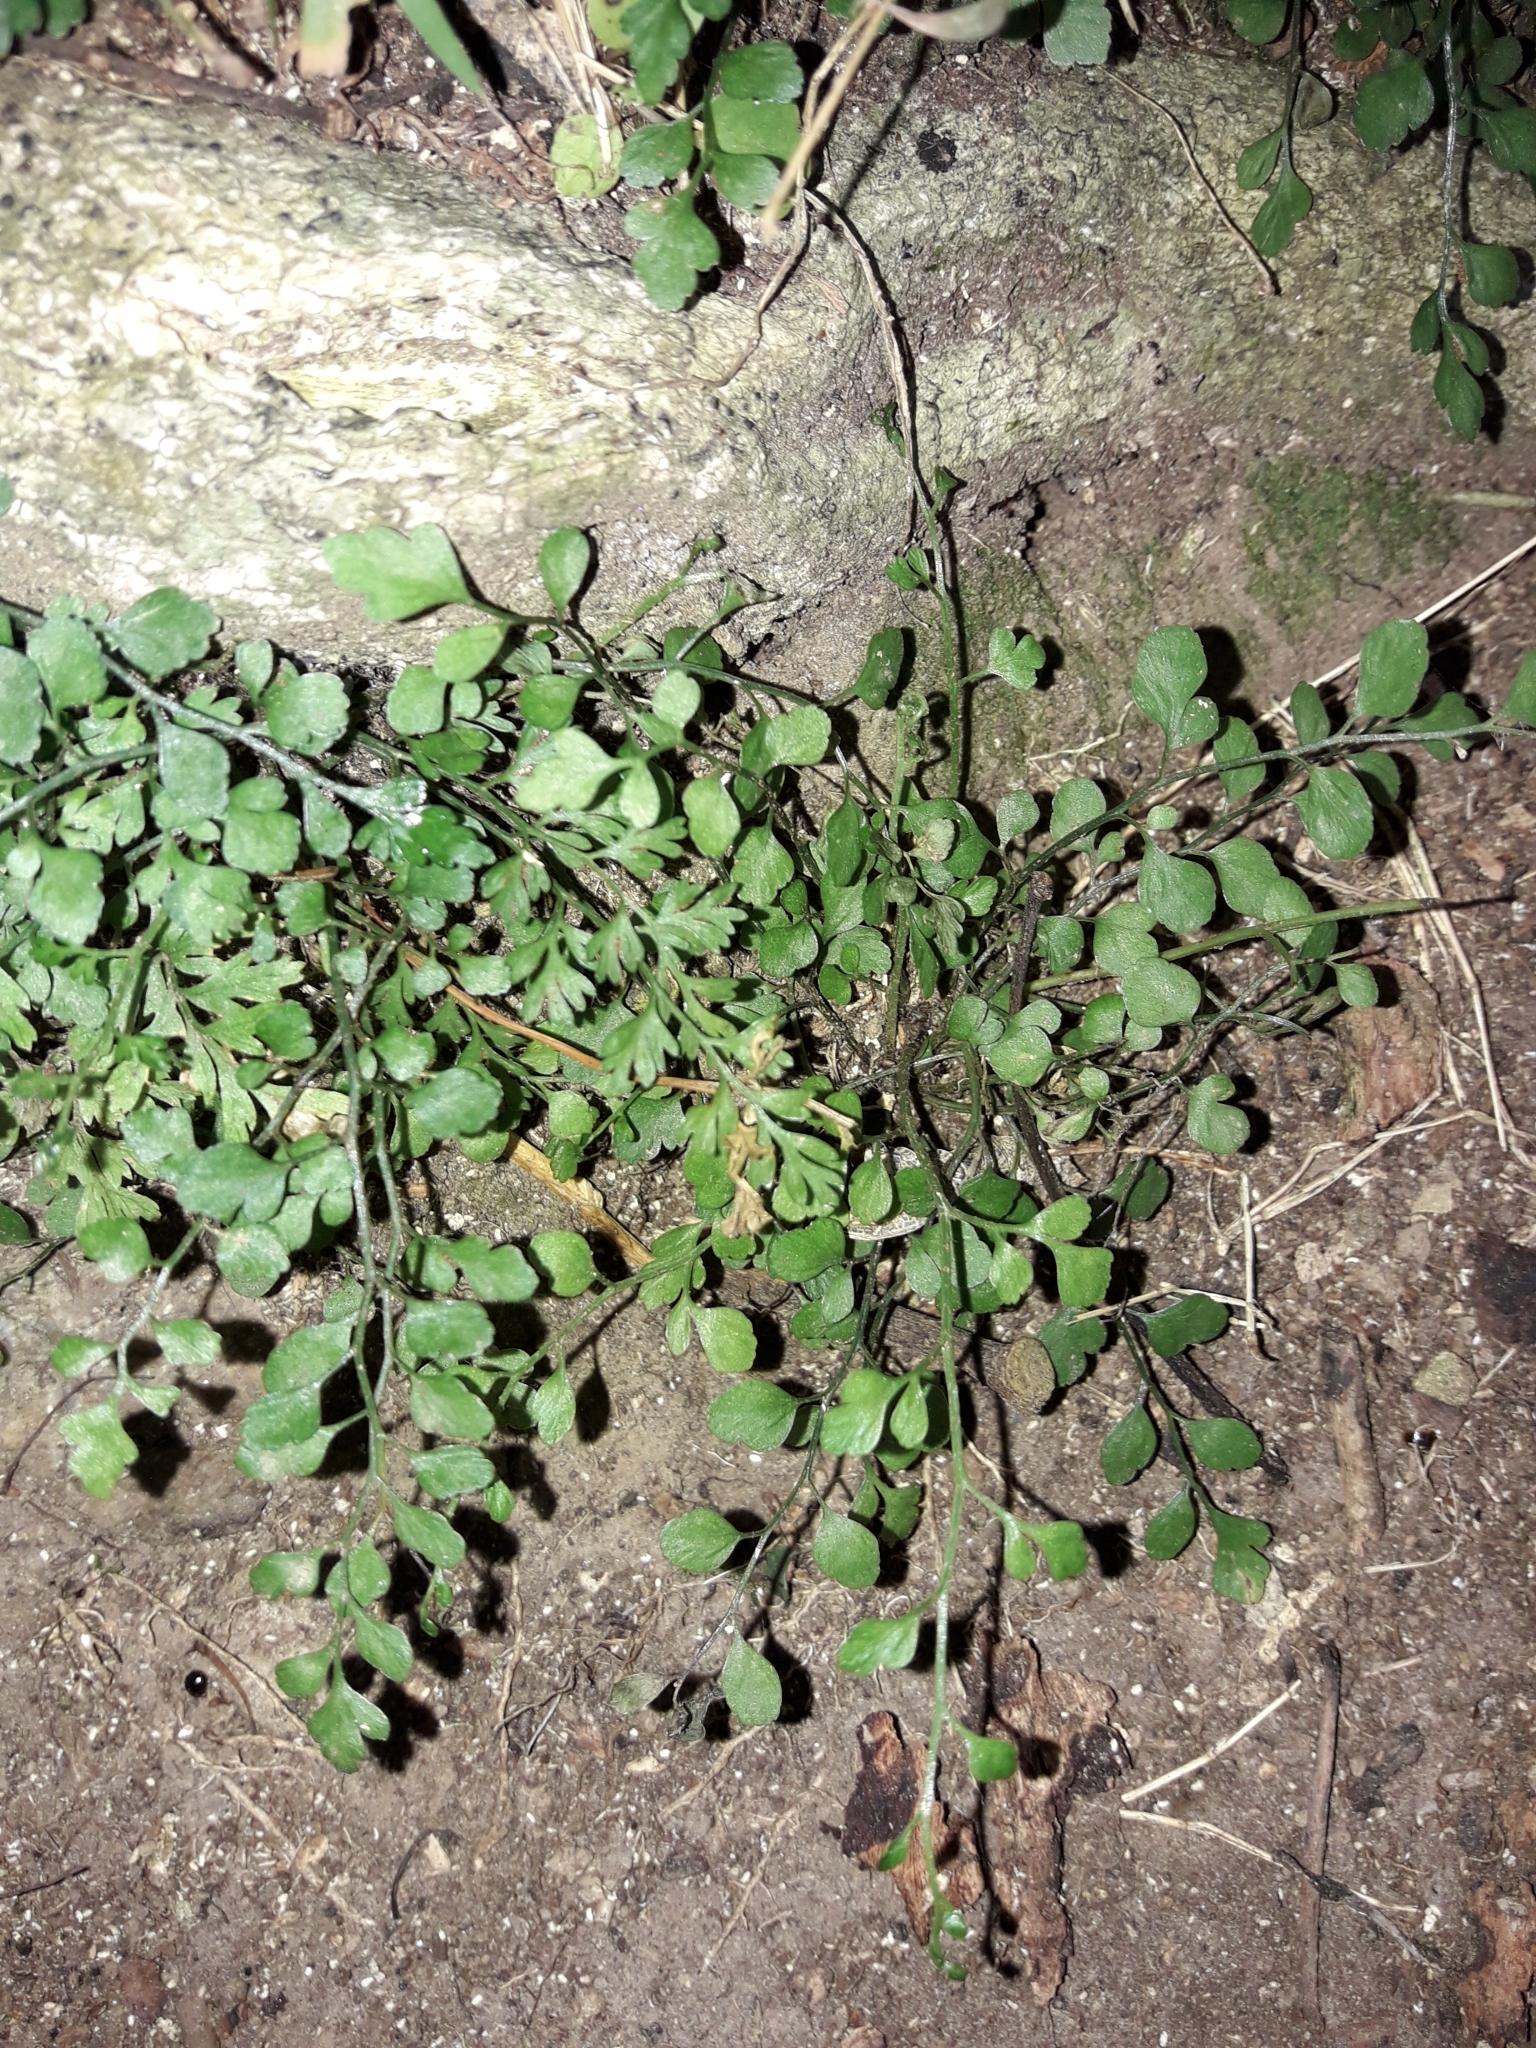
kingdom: Plantae
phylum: Tracheophyta
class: Polypodiopsida
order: Polypodiales
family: Aspleniaceae
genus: Asplenium
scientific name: Asplenium hookerianum
